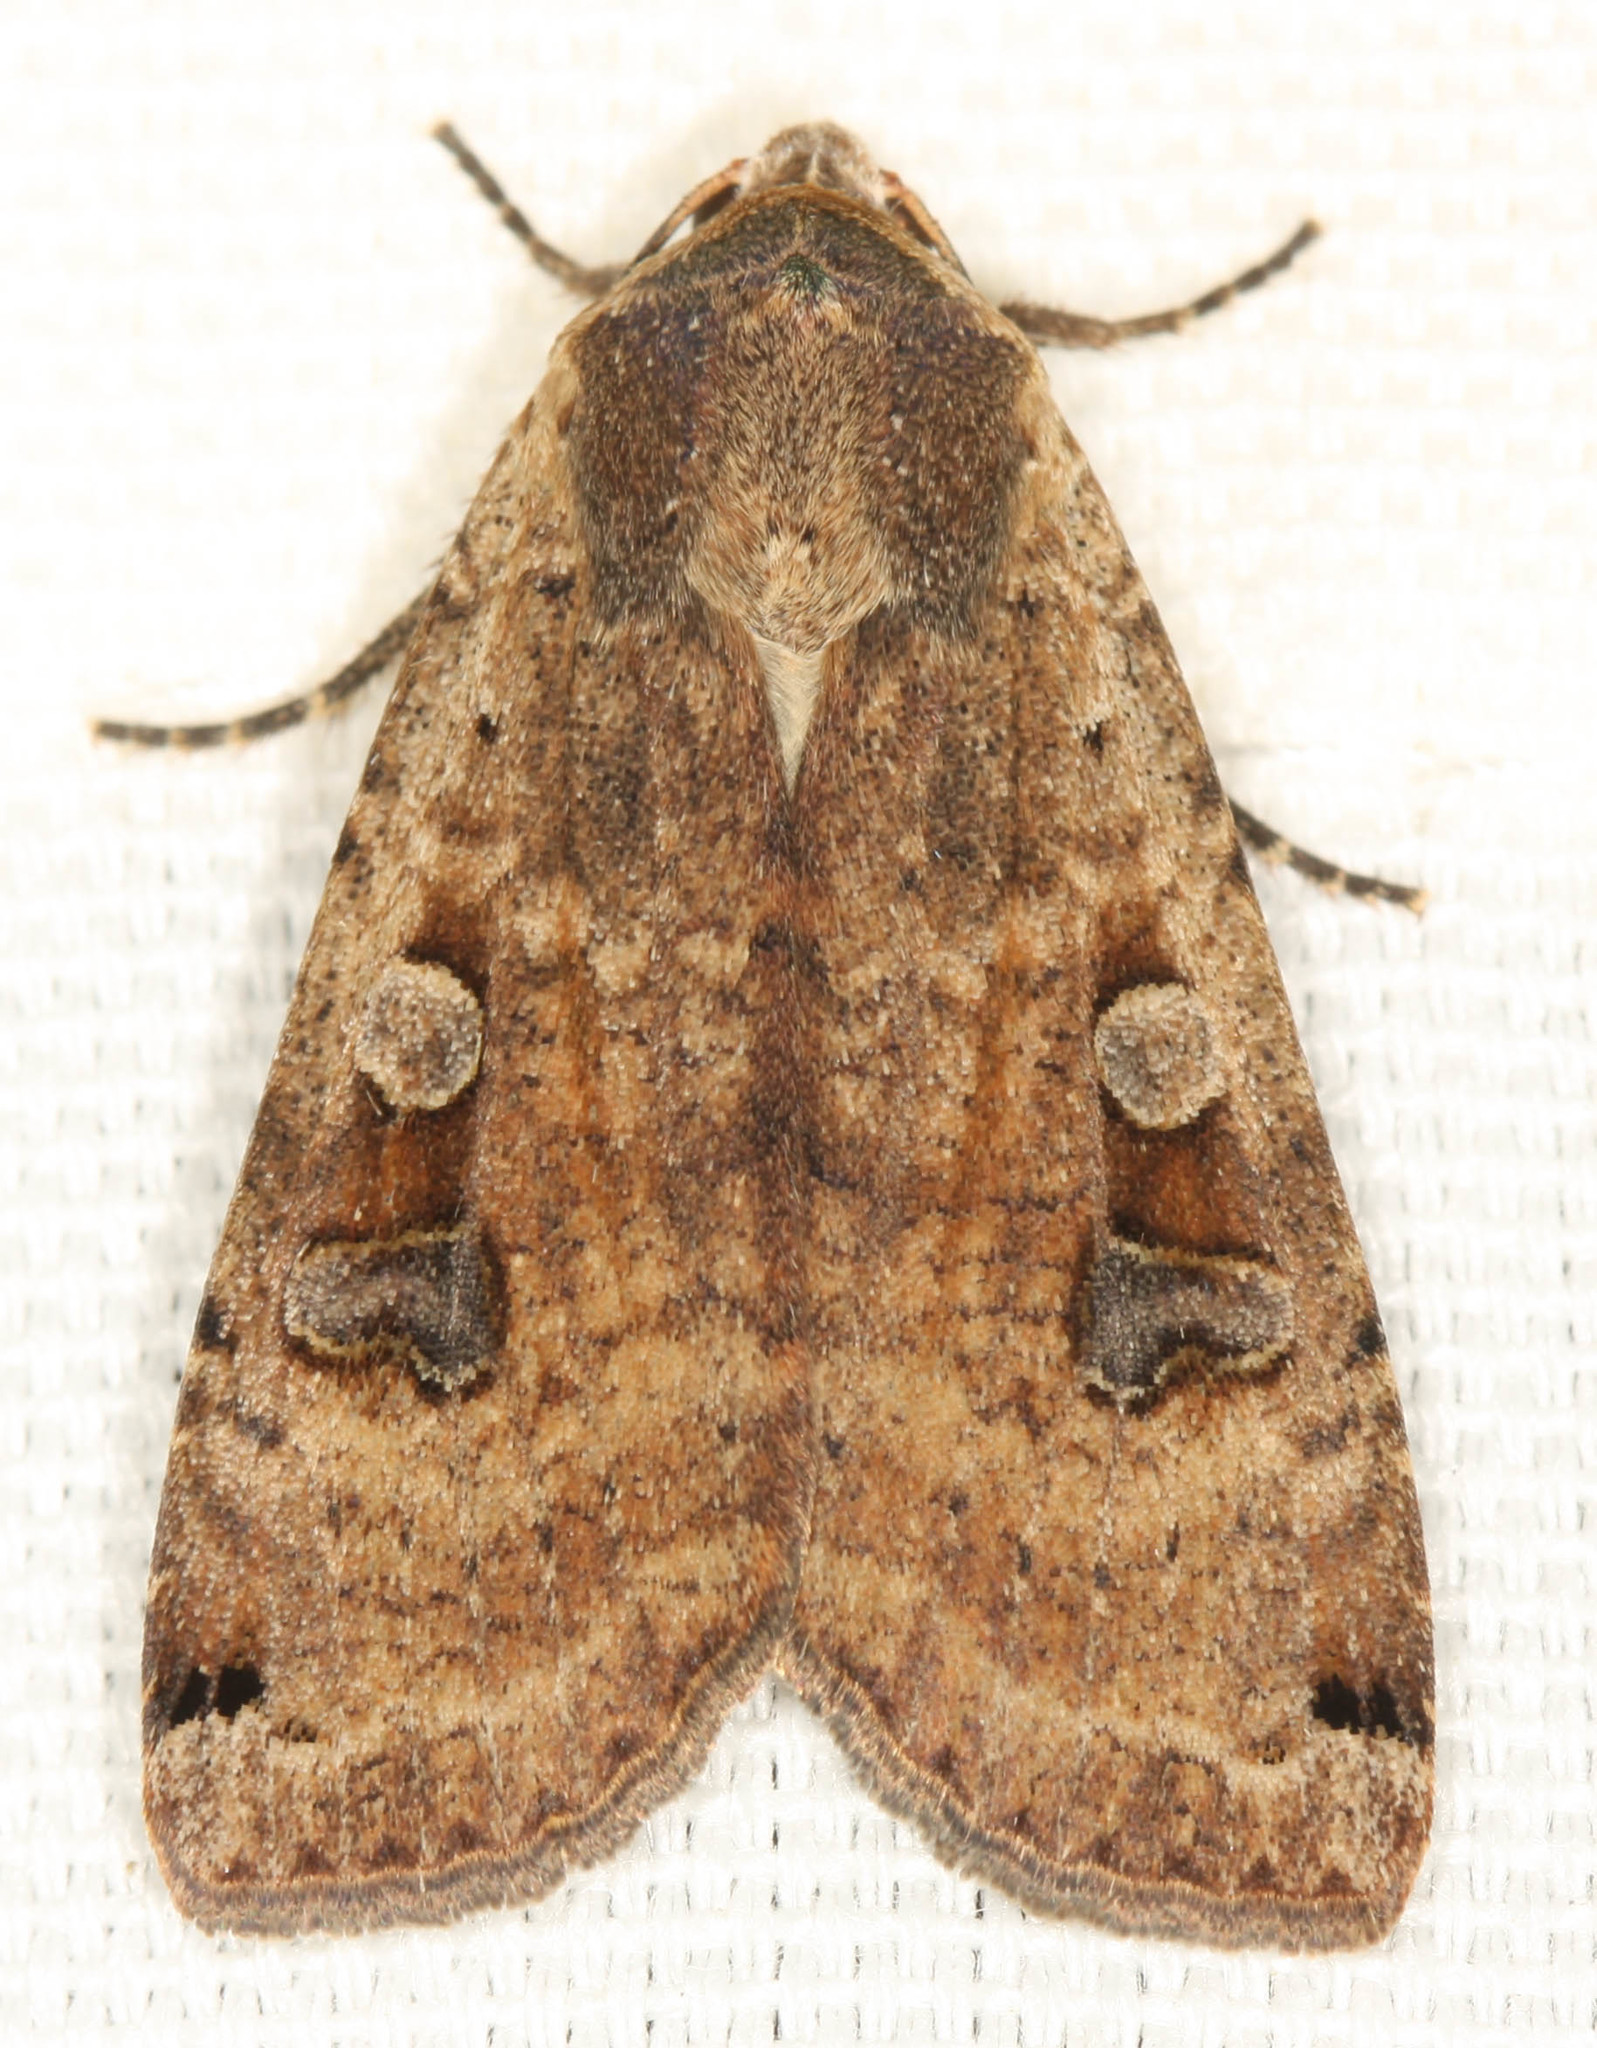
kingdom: Animalia
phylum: Arthropoda
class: Insecta
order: Lepidoptera
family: Noctuidae
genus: Noctua
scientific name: Noctua pronuba
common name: Large yellow underwing
